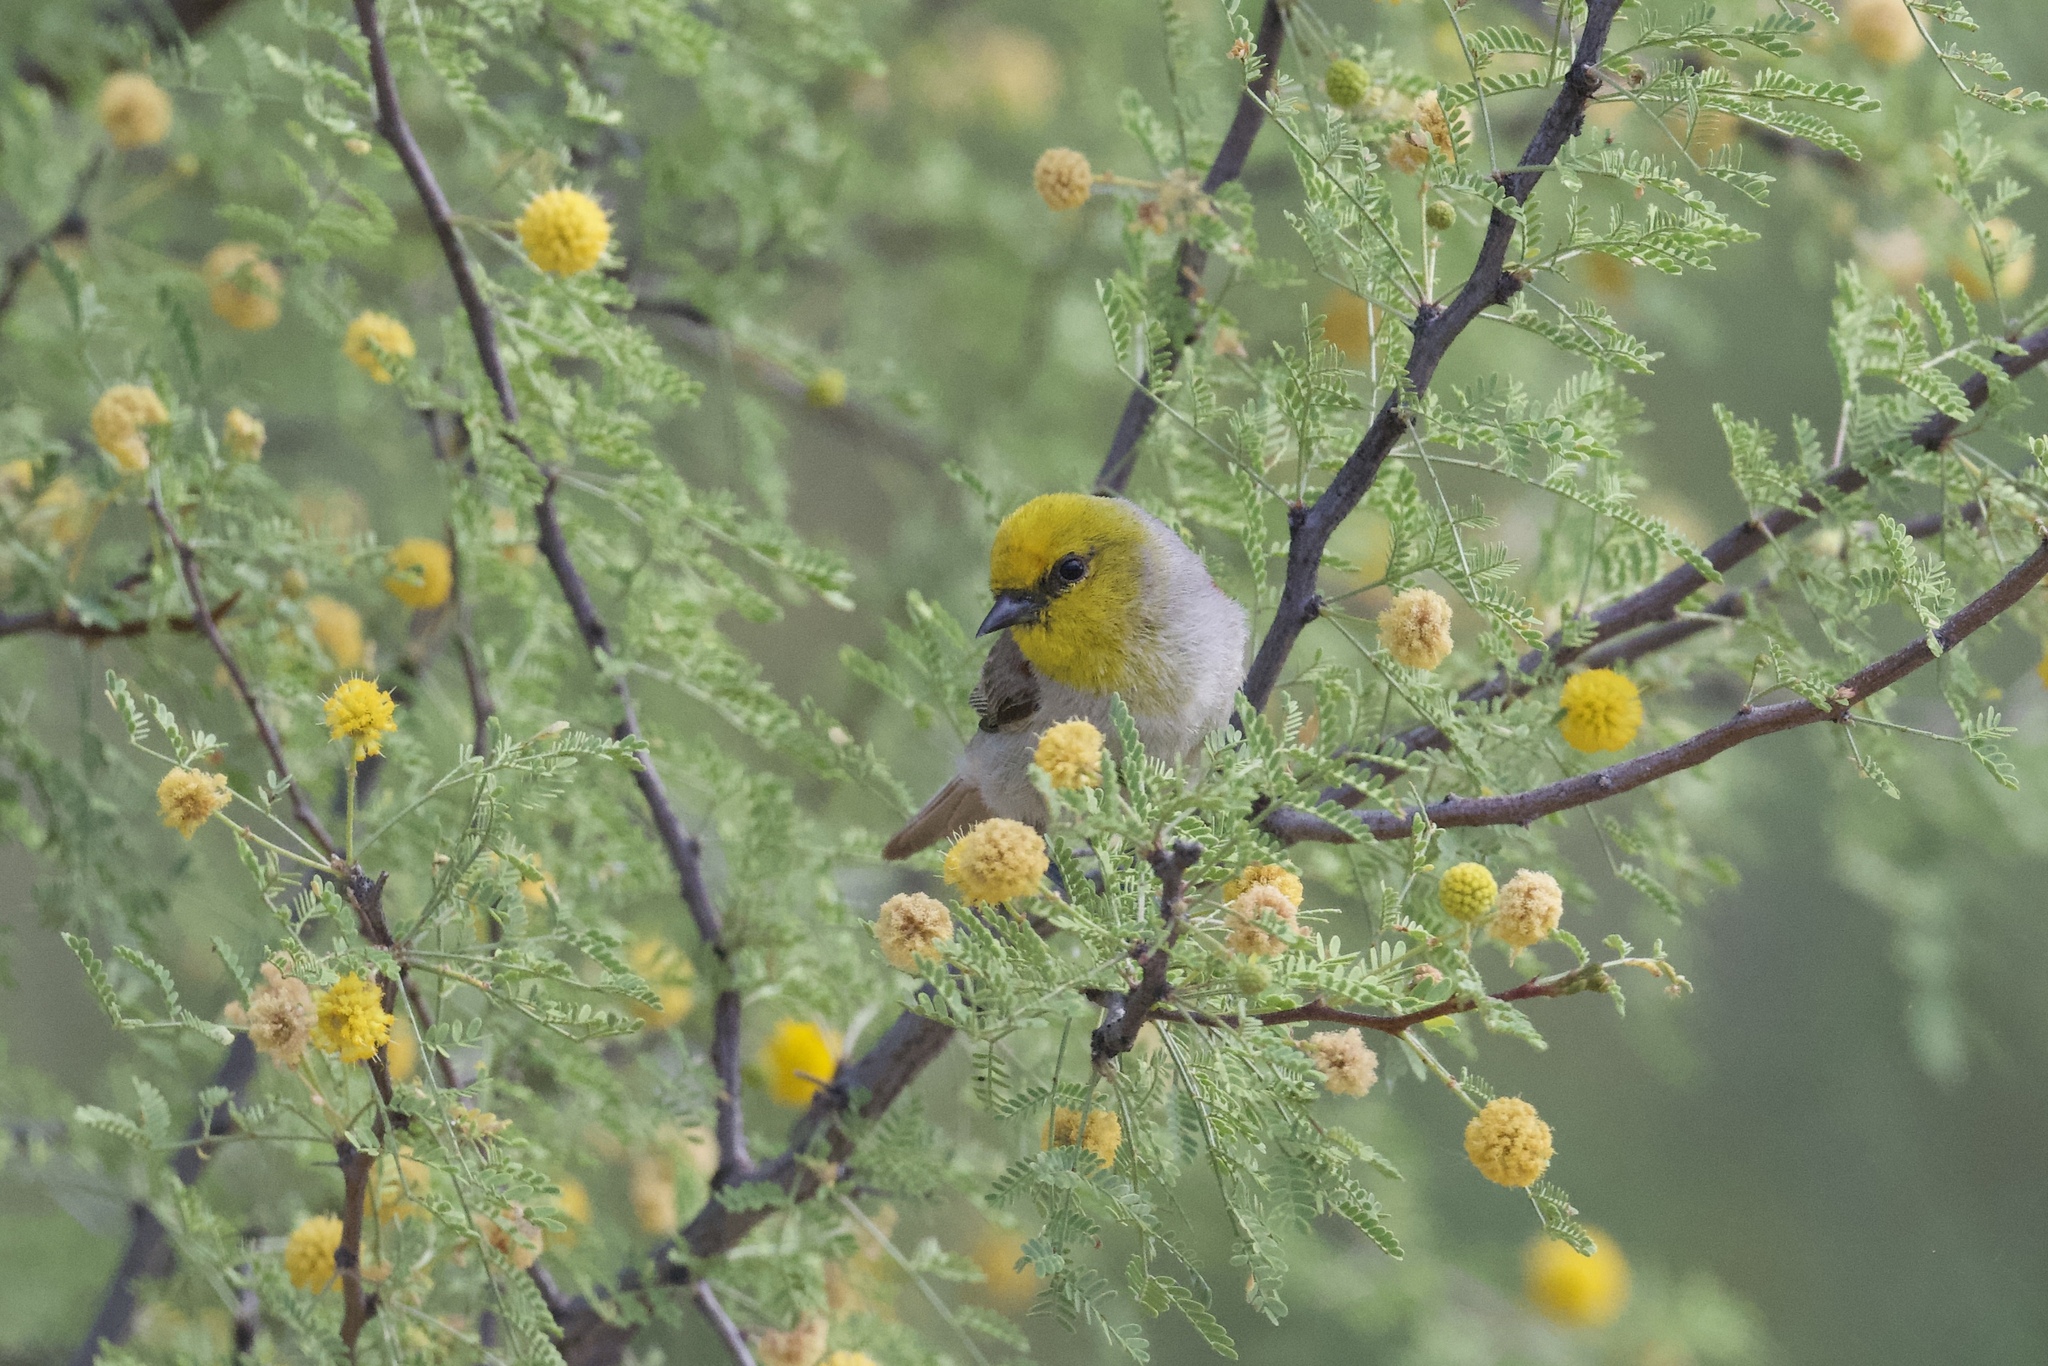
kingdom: Animalia
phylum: Chordata
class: Aves
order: Passeriformes
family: Remizidae
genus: Auriparus
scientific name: Auriparus flaviceps
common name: Verdin
